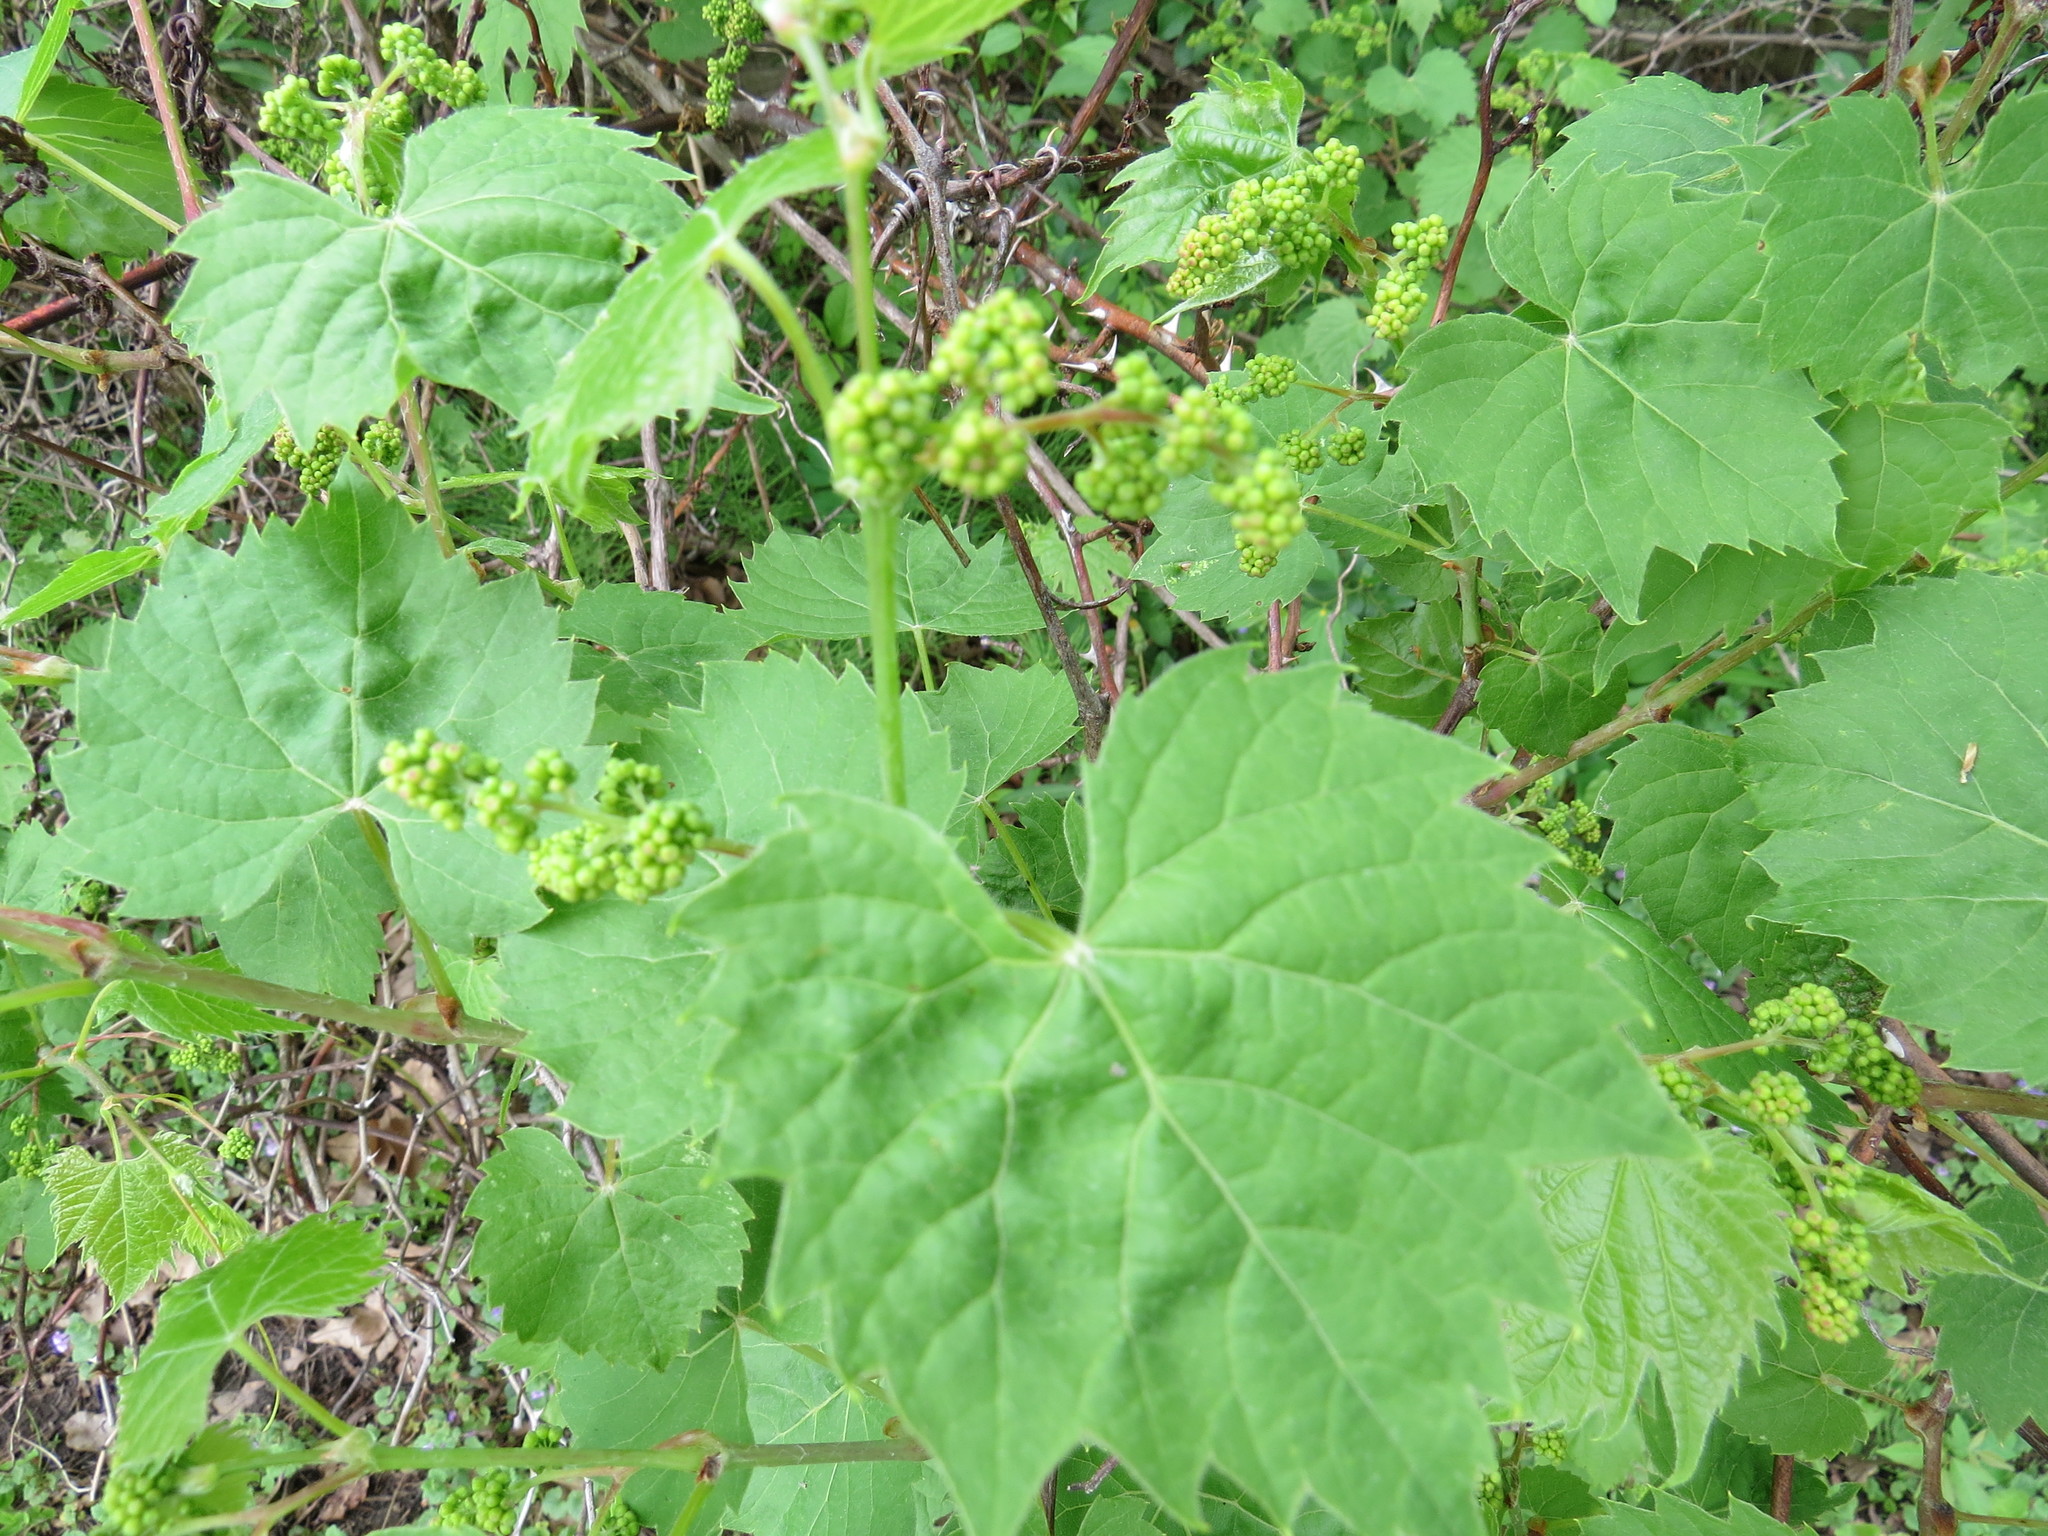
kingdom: Plantae
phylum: Tracheophyta
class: Magnoliopsida
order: Vitales
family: Vitaceae
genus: Vitis
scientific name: Vitis riparia
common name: Frost grape
